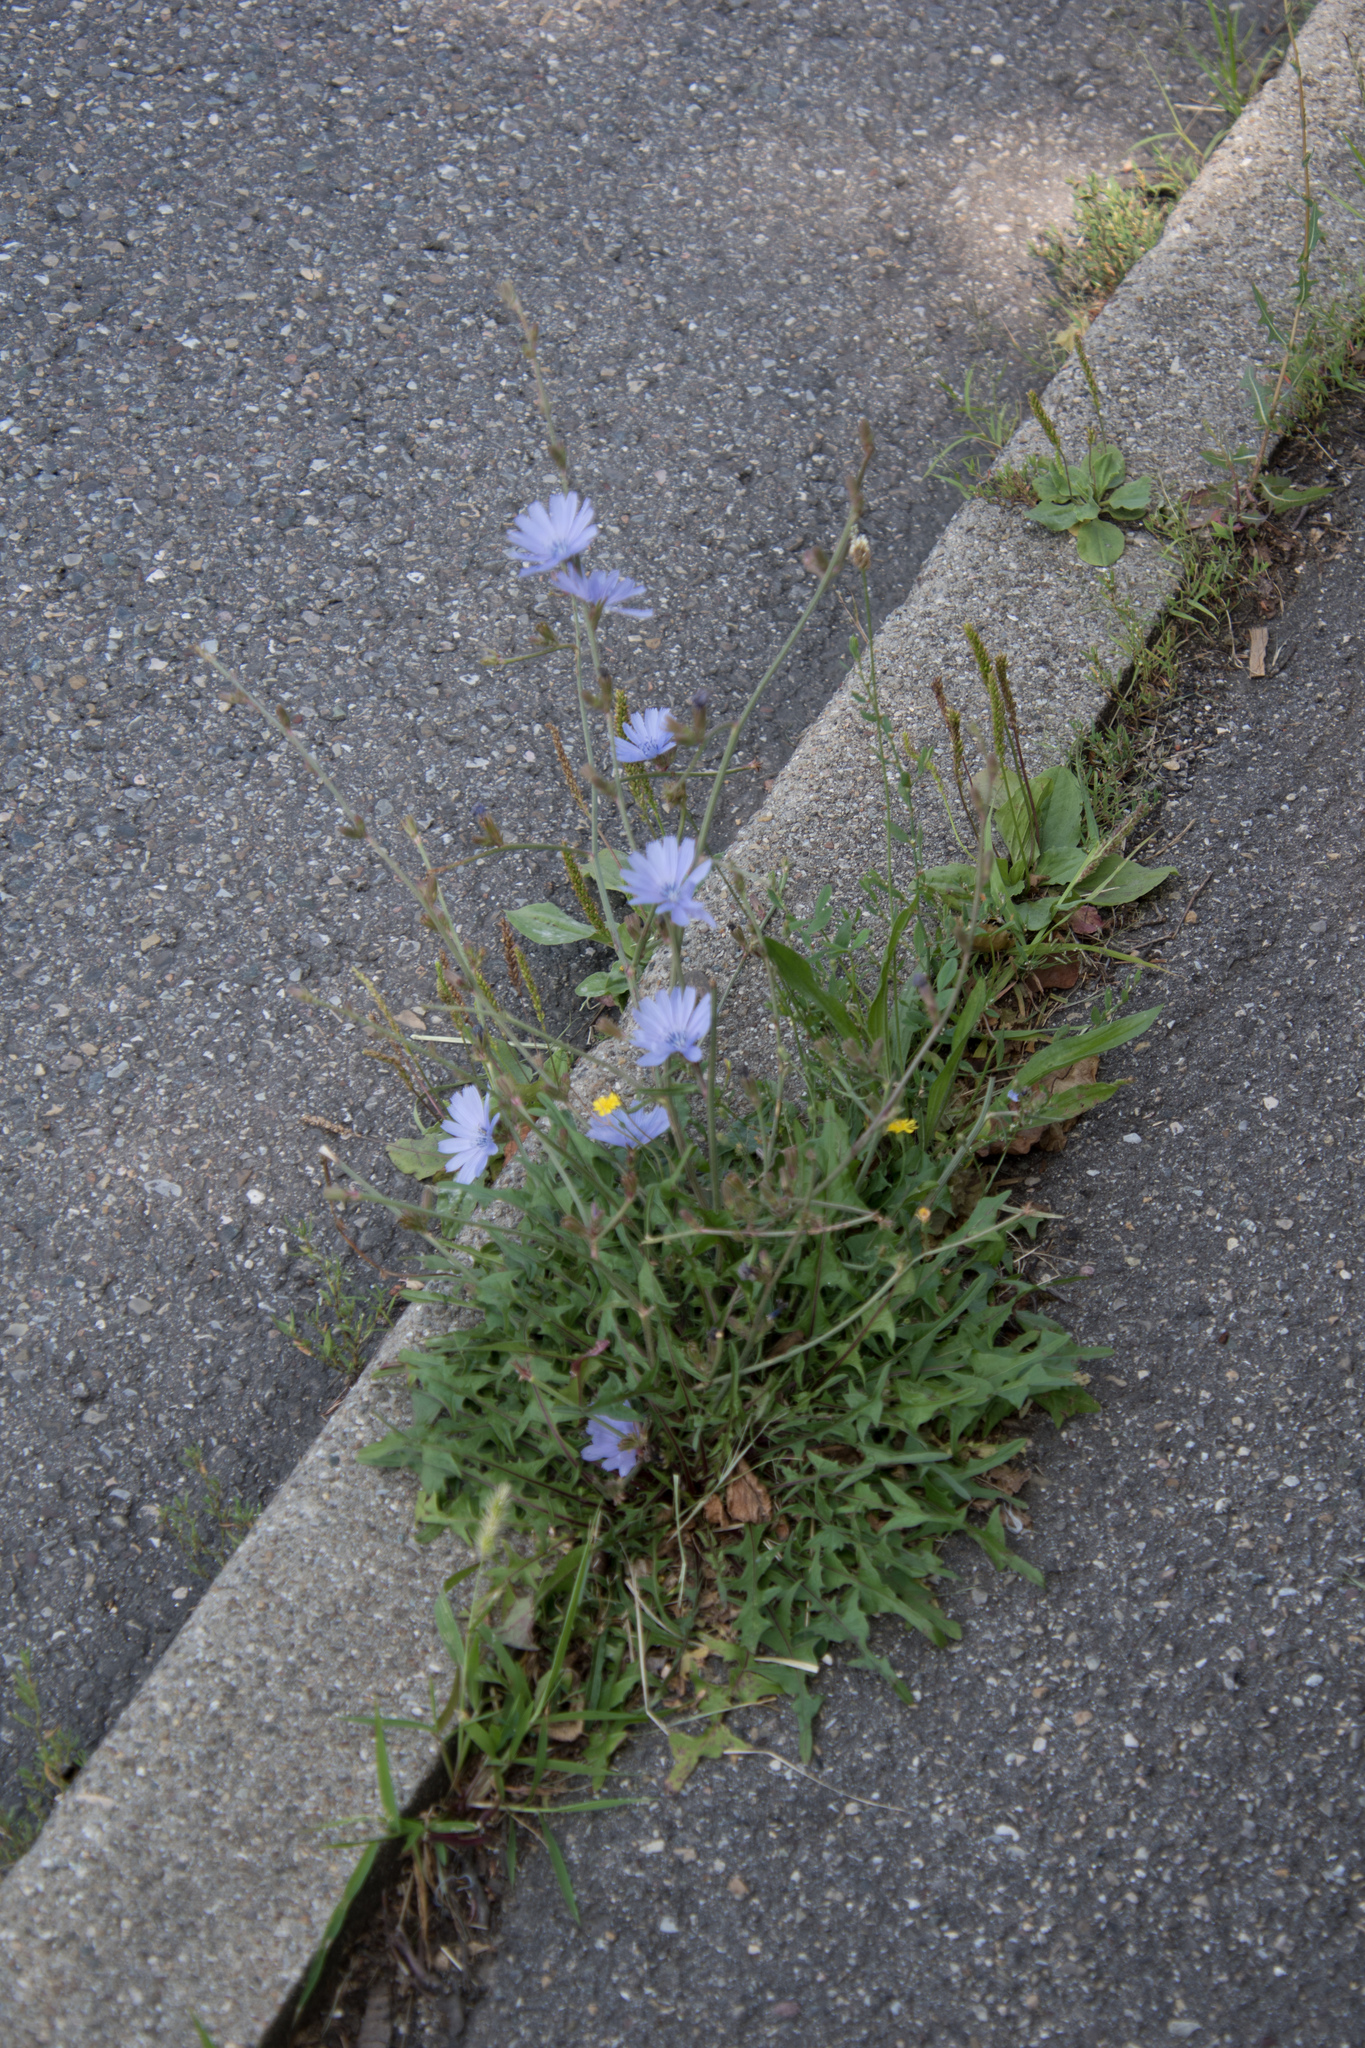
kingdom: Plantae
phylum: Tracheophyta
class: Magnoliopsida
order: Asterales
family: Asteraceae
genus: Cichorium
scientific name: Cichorium intybus
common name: Chicory
